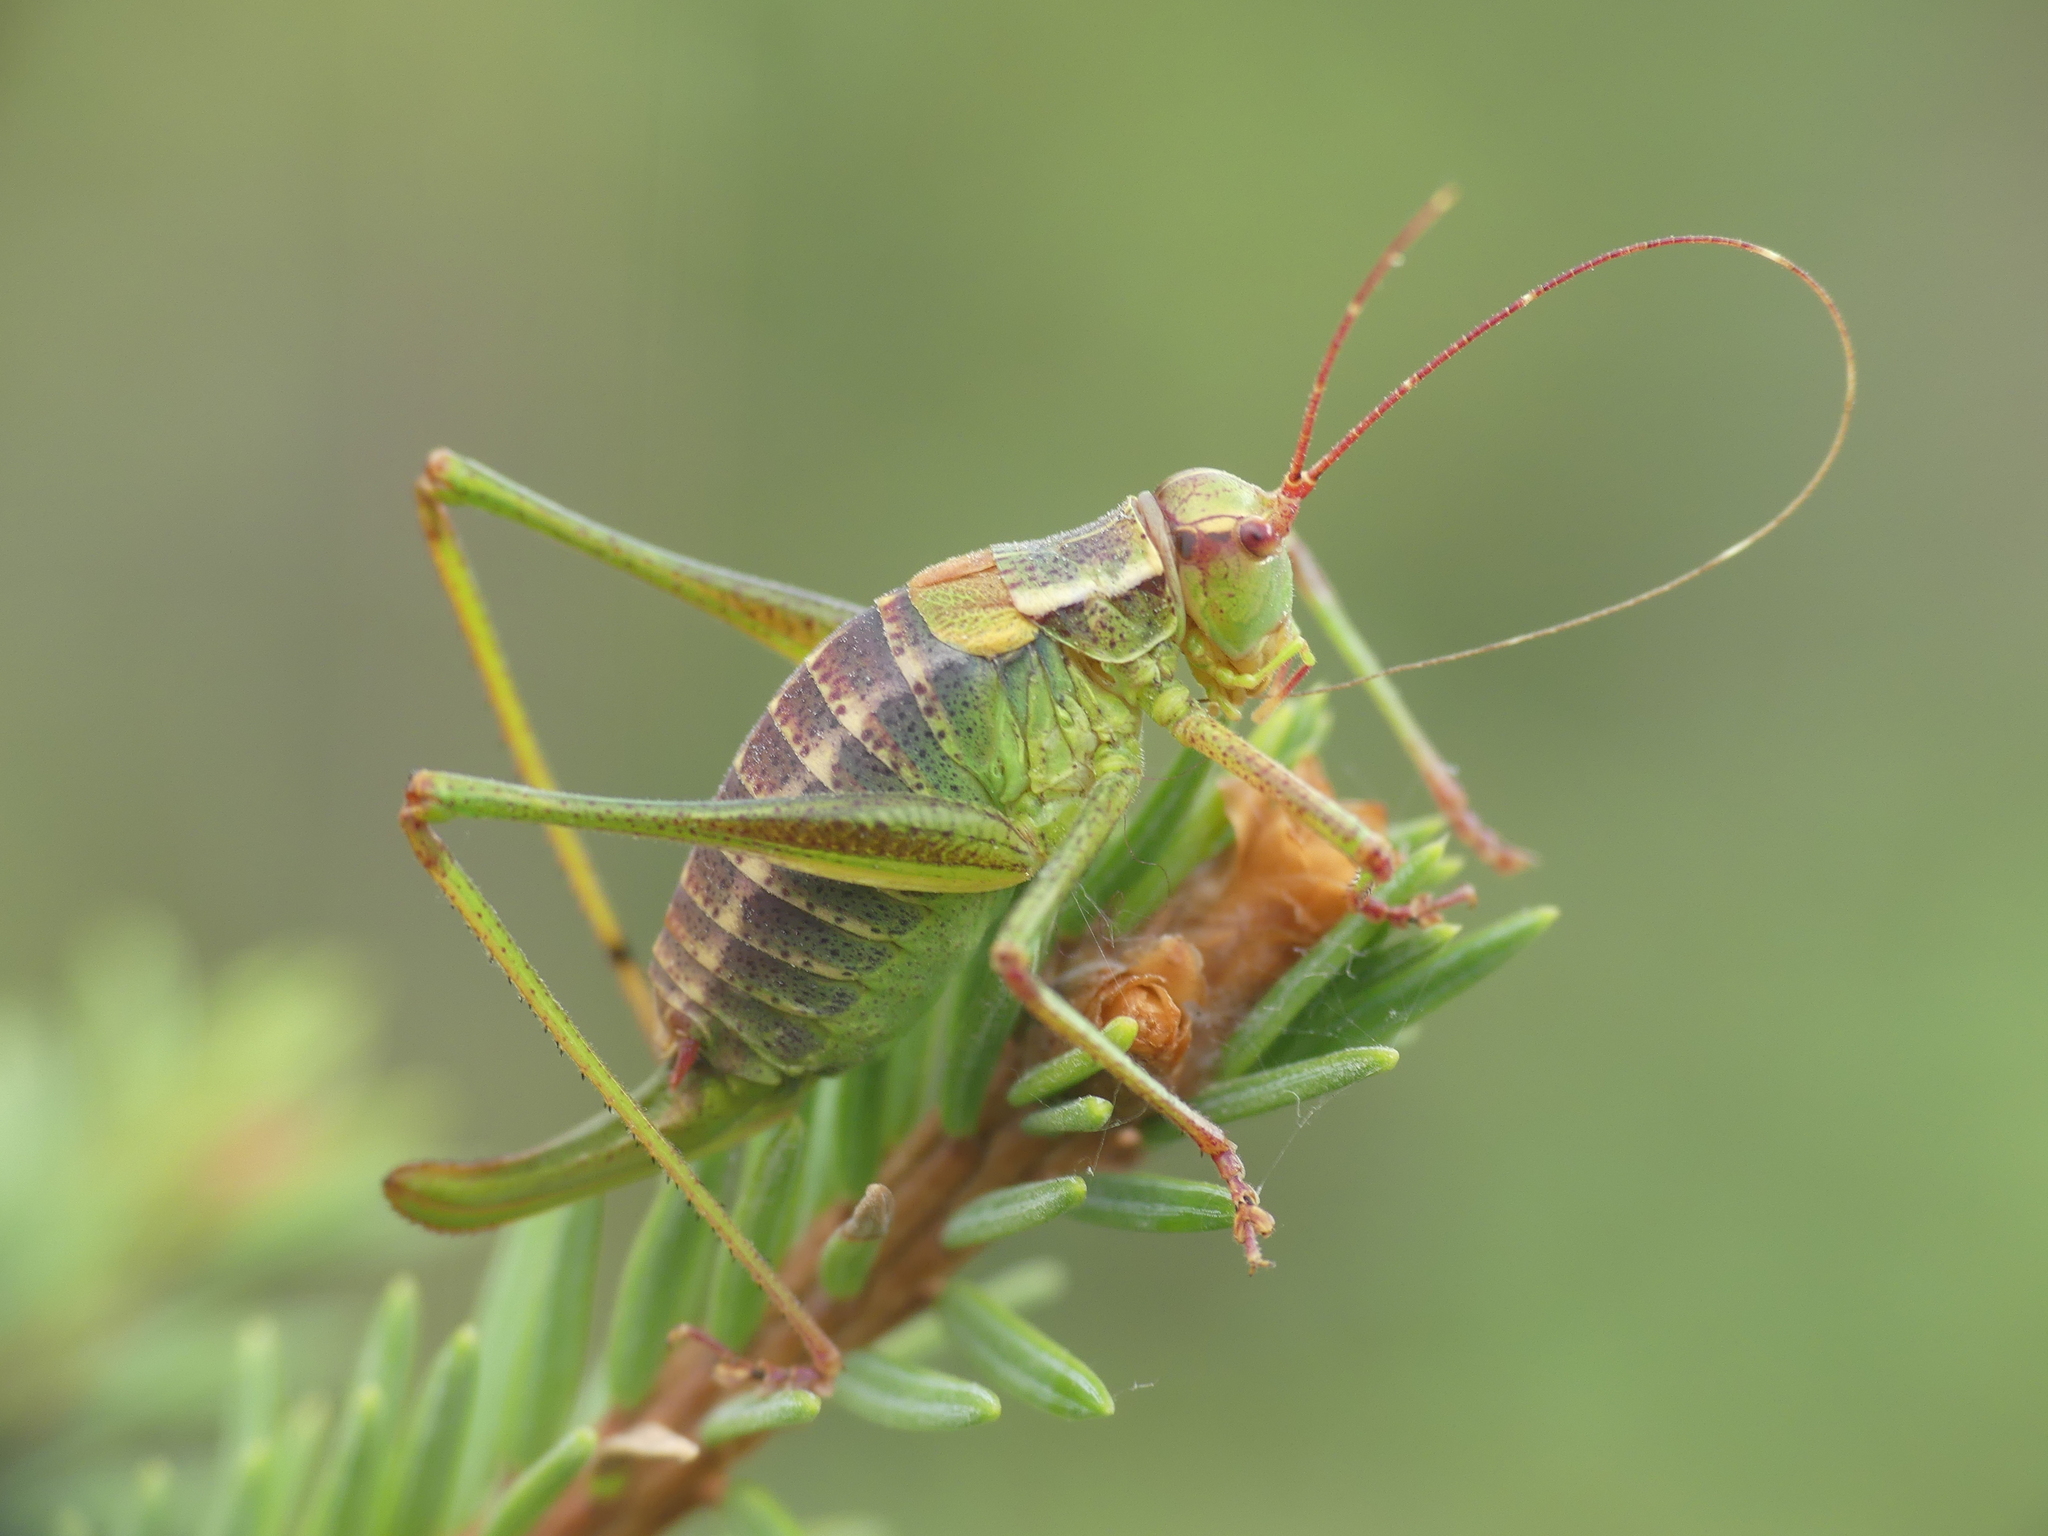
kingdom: Animalia
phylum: Arthropoda
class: Insecta
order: Orthoptera
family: Tettigoniidae
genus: Barbitistes
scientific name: Barbitistes constrictus
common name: Eastern saw-tailed bush cricket
